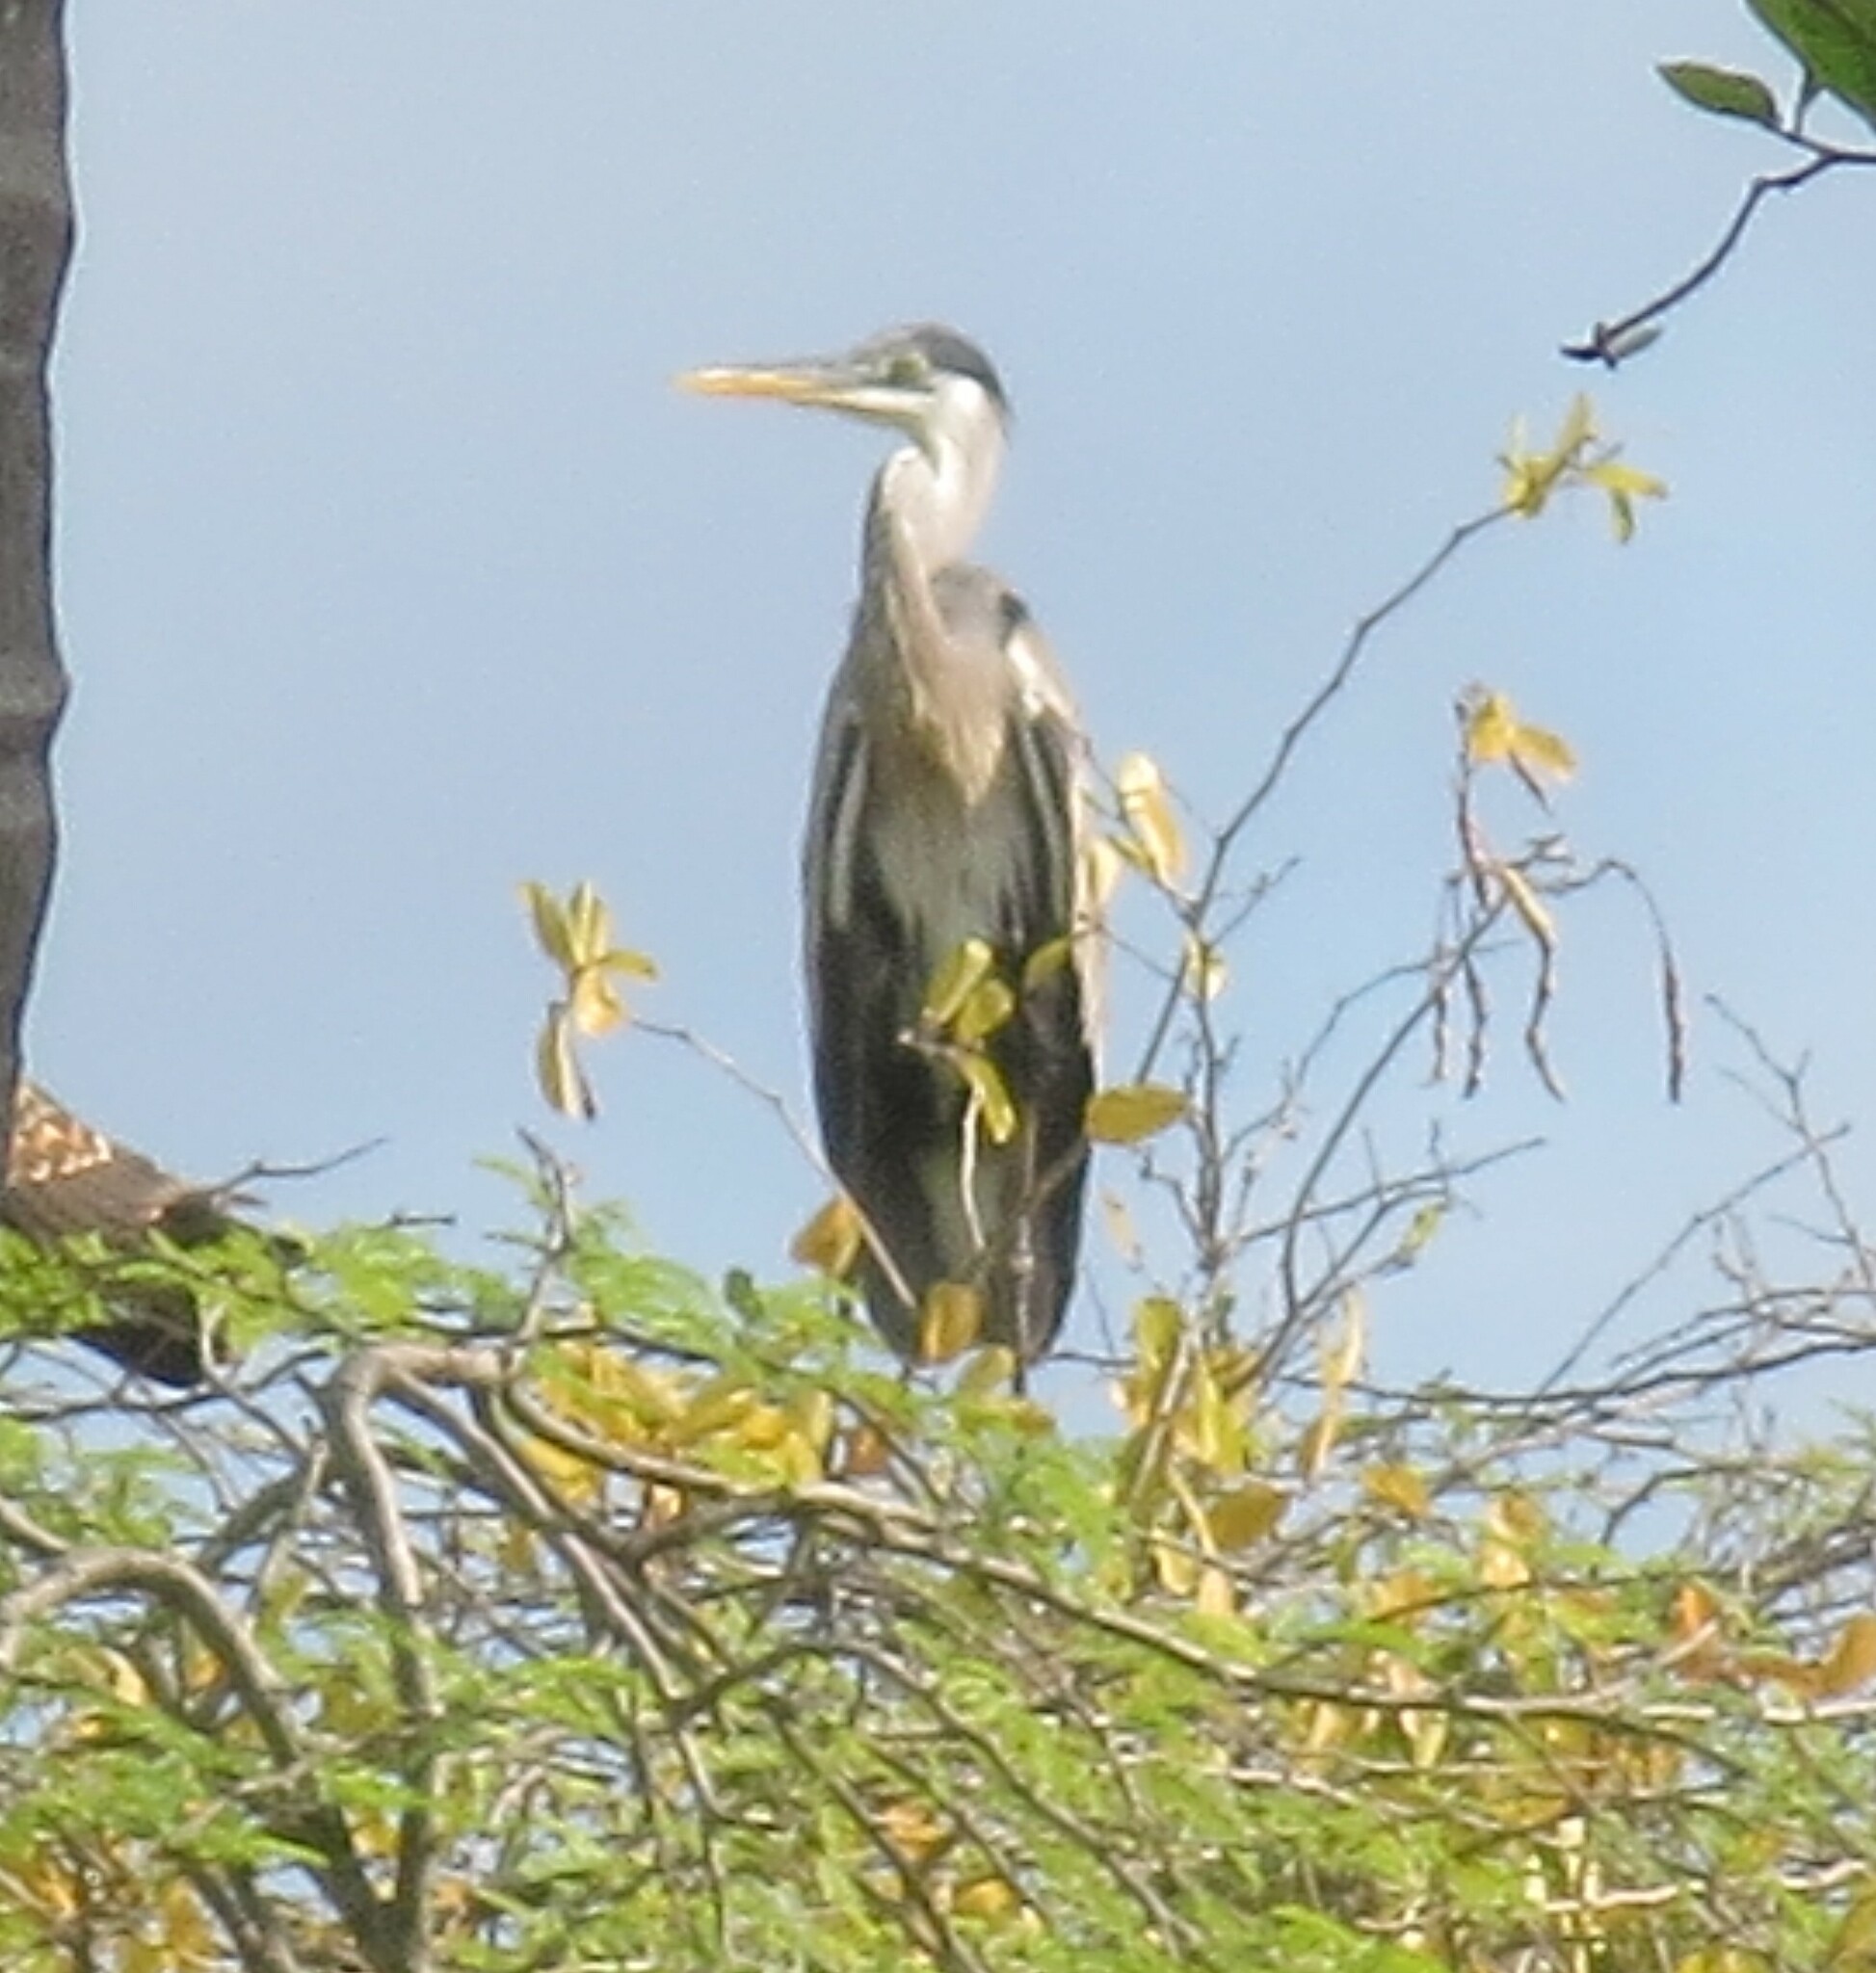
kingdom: Animalia
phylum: Chordata
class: Aves
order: Pelecaniformes
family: Ardeidae
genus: Ardea
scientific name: Ardea cocoi
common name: Cocoi heron
